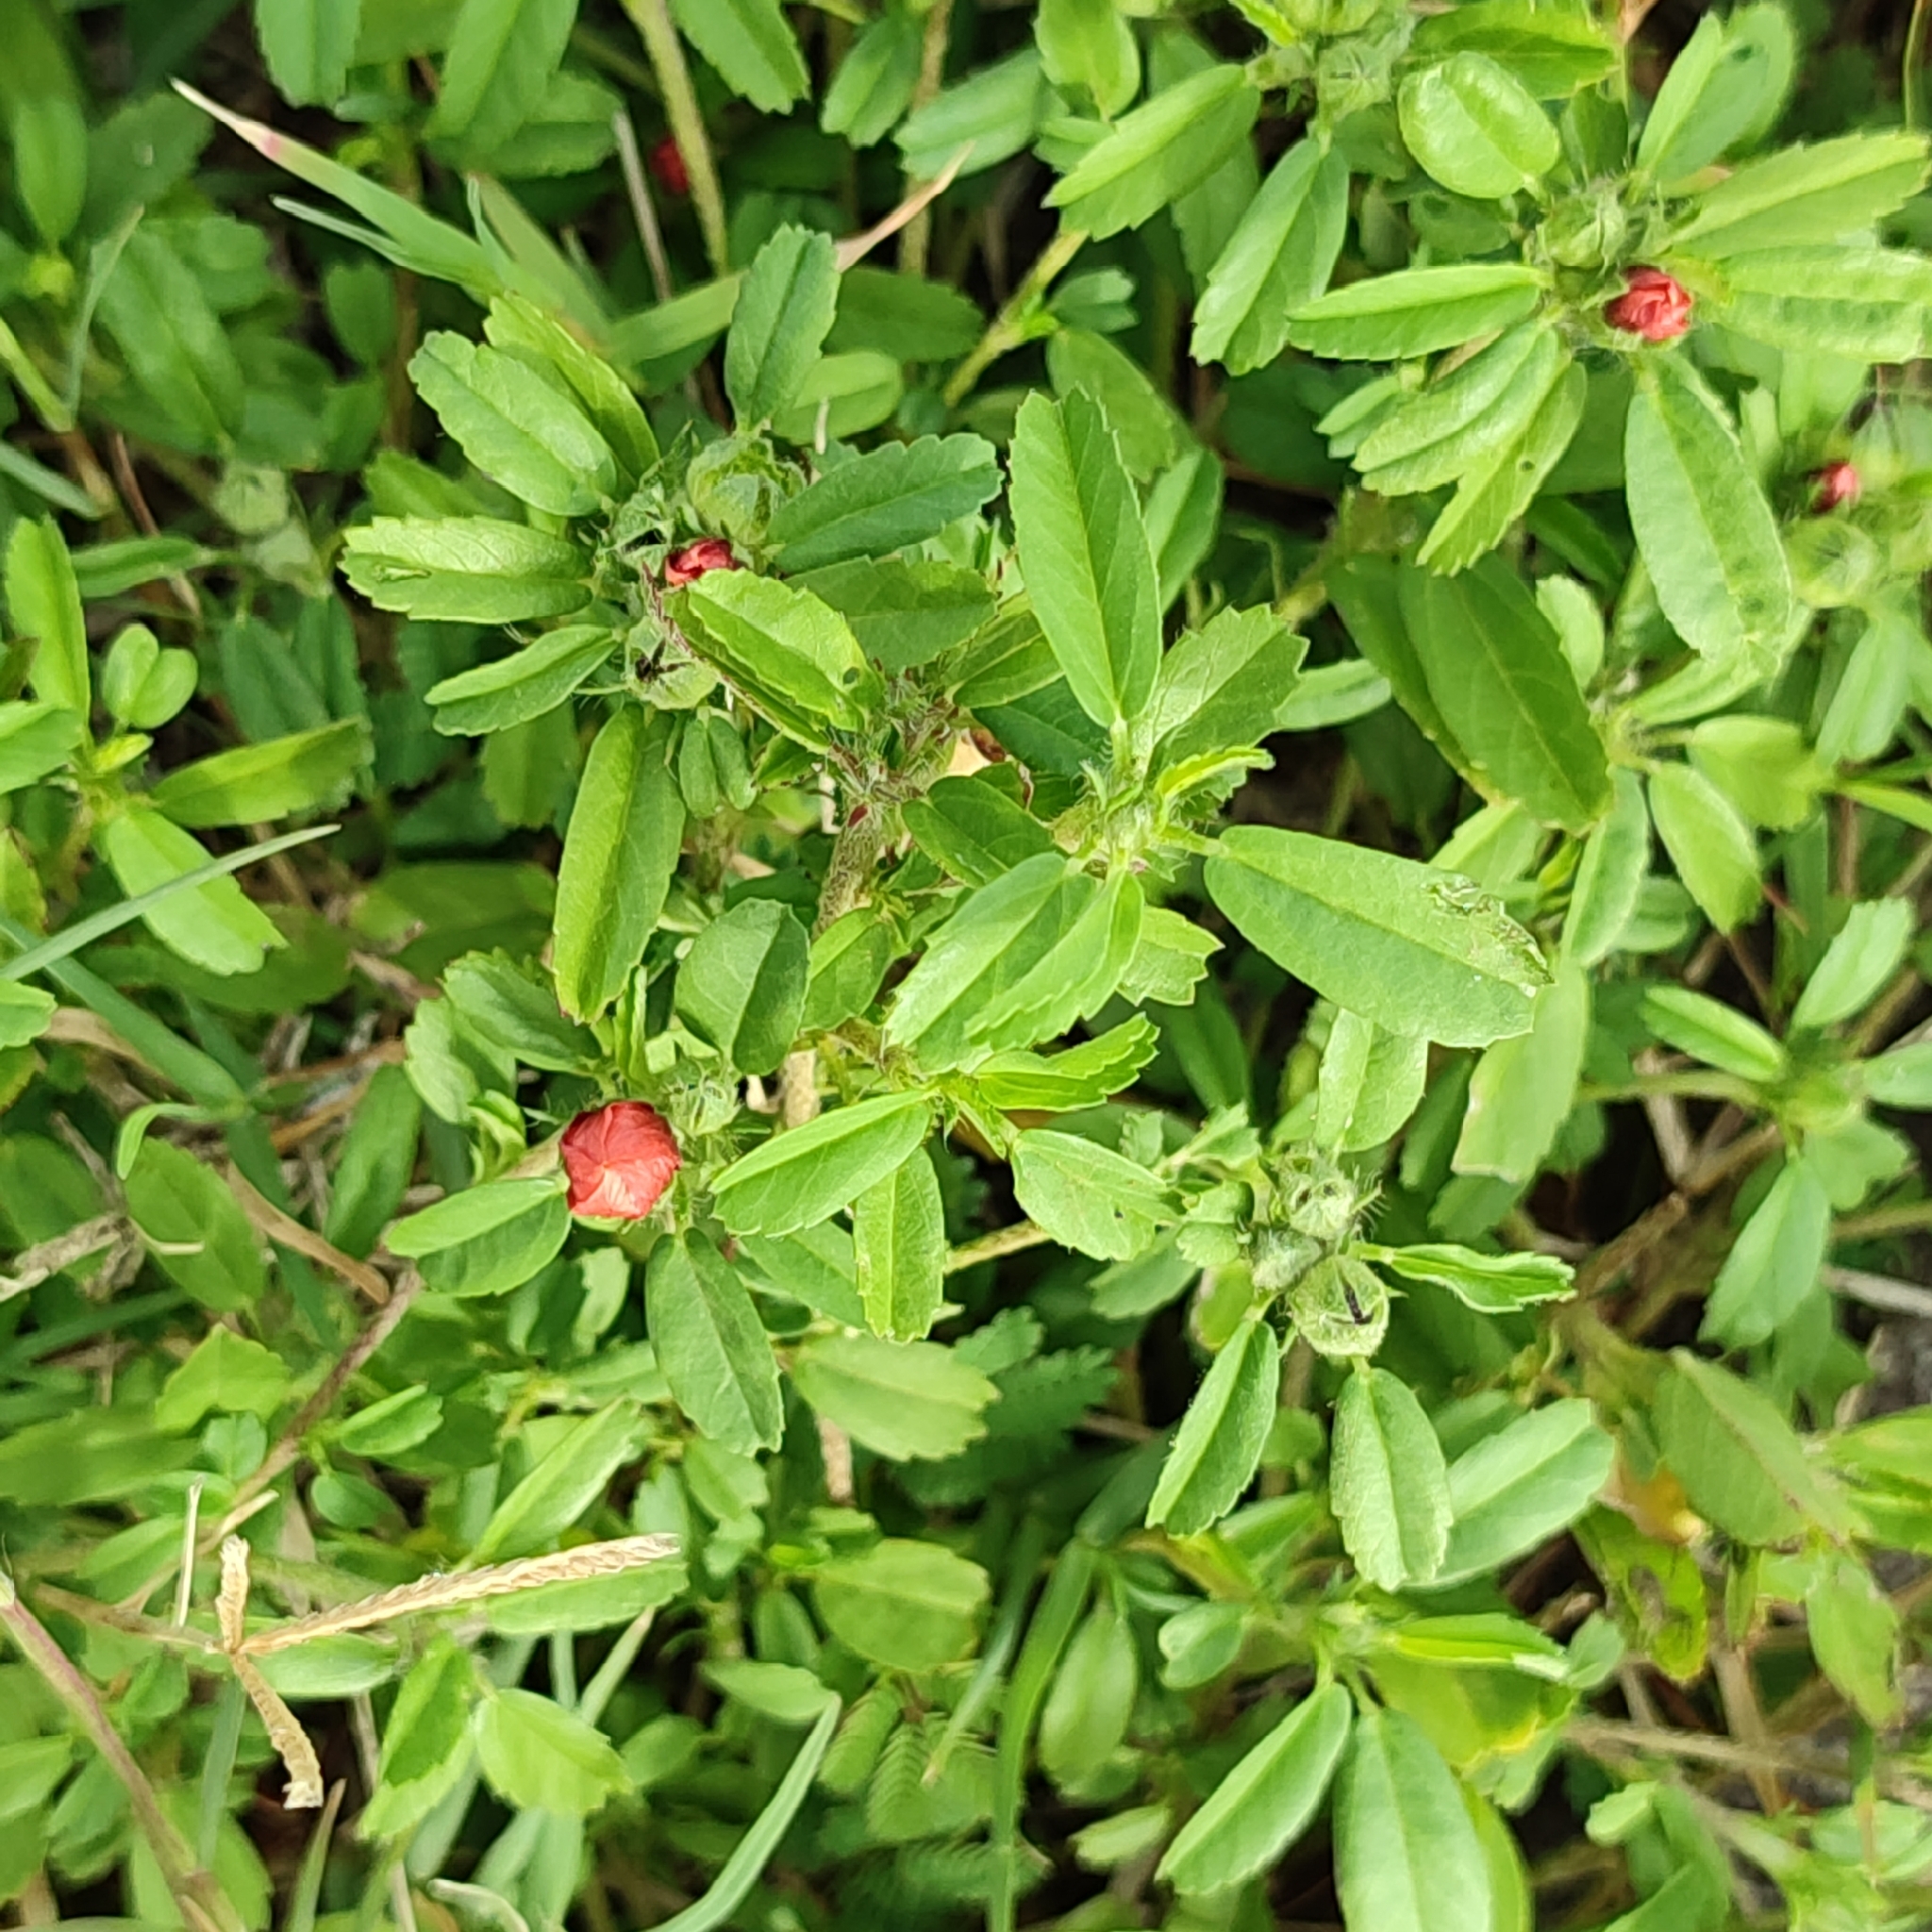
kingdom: Plantae
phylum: Tracheophyta
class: Magnoliopsida
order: Malvales
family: Malvaceae
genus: Sida
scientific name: Sida ciliaris
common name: Bracted fanpetals
